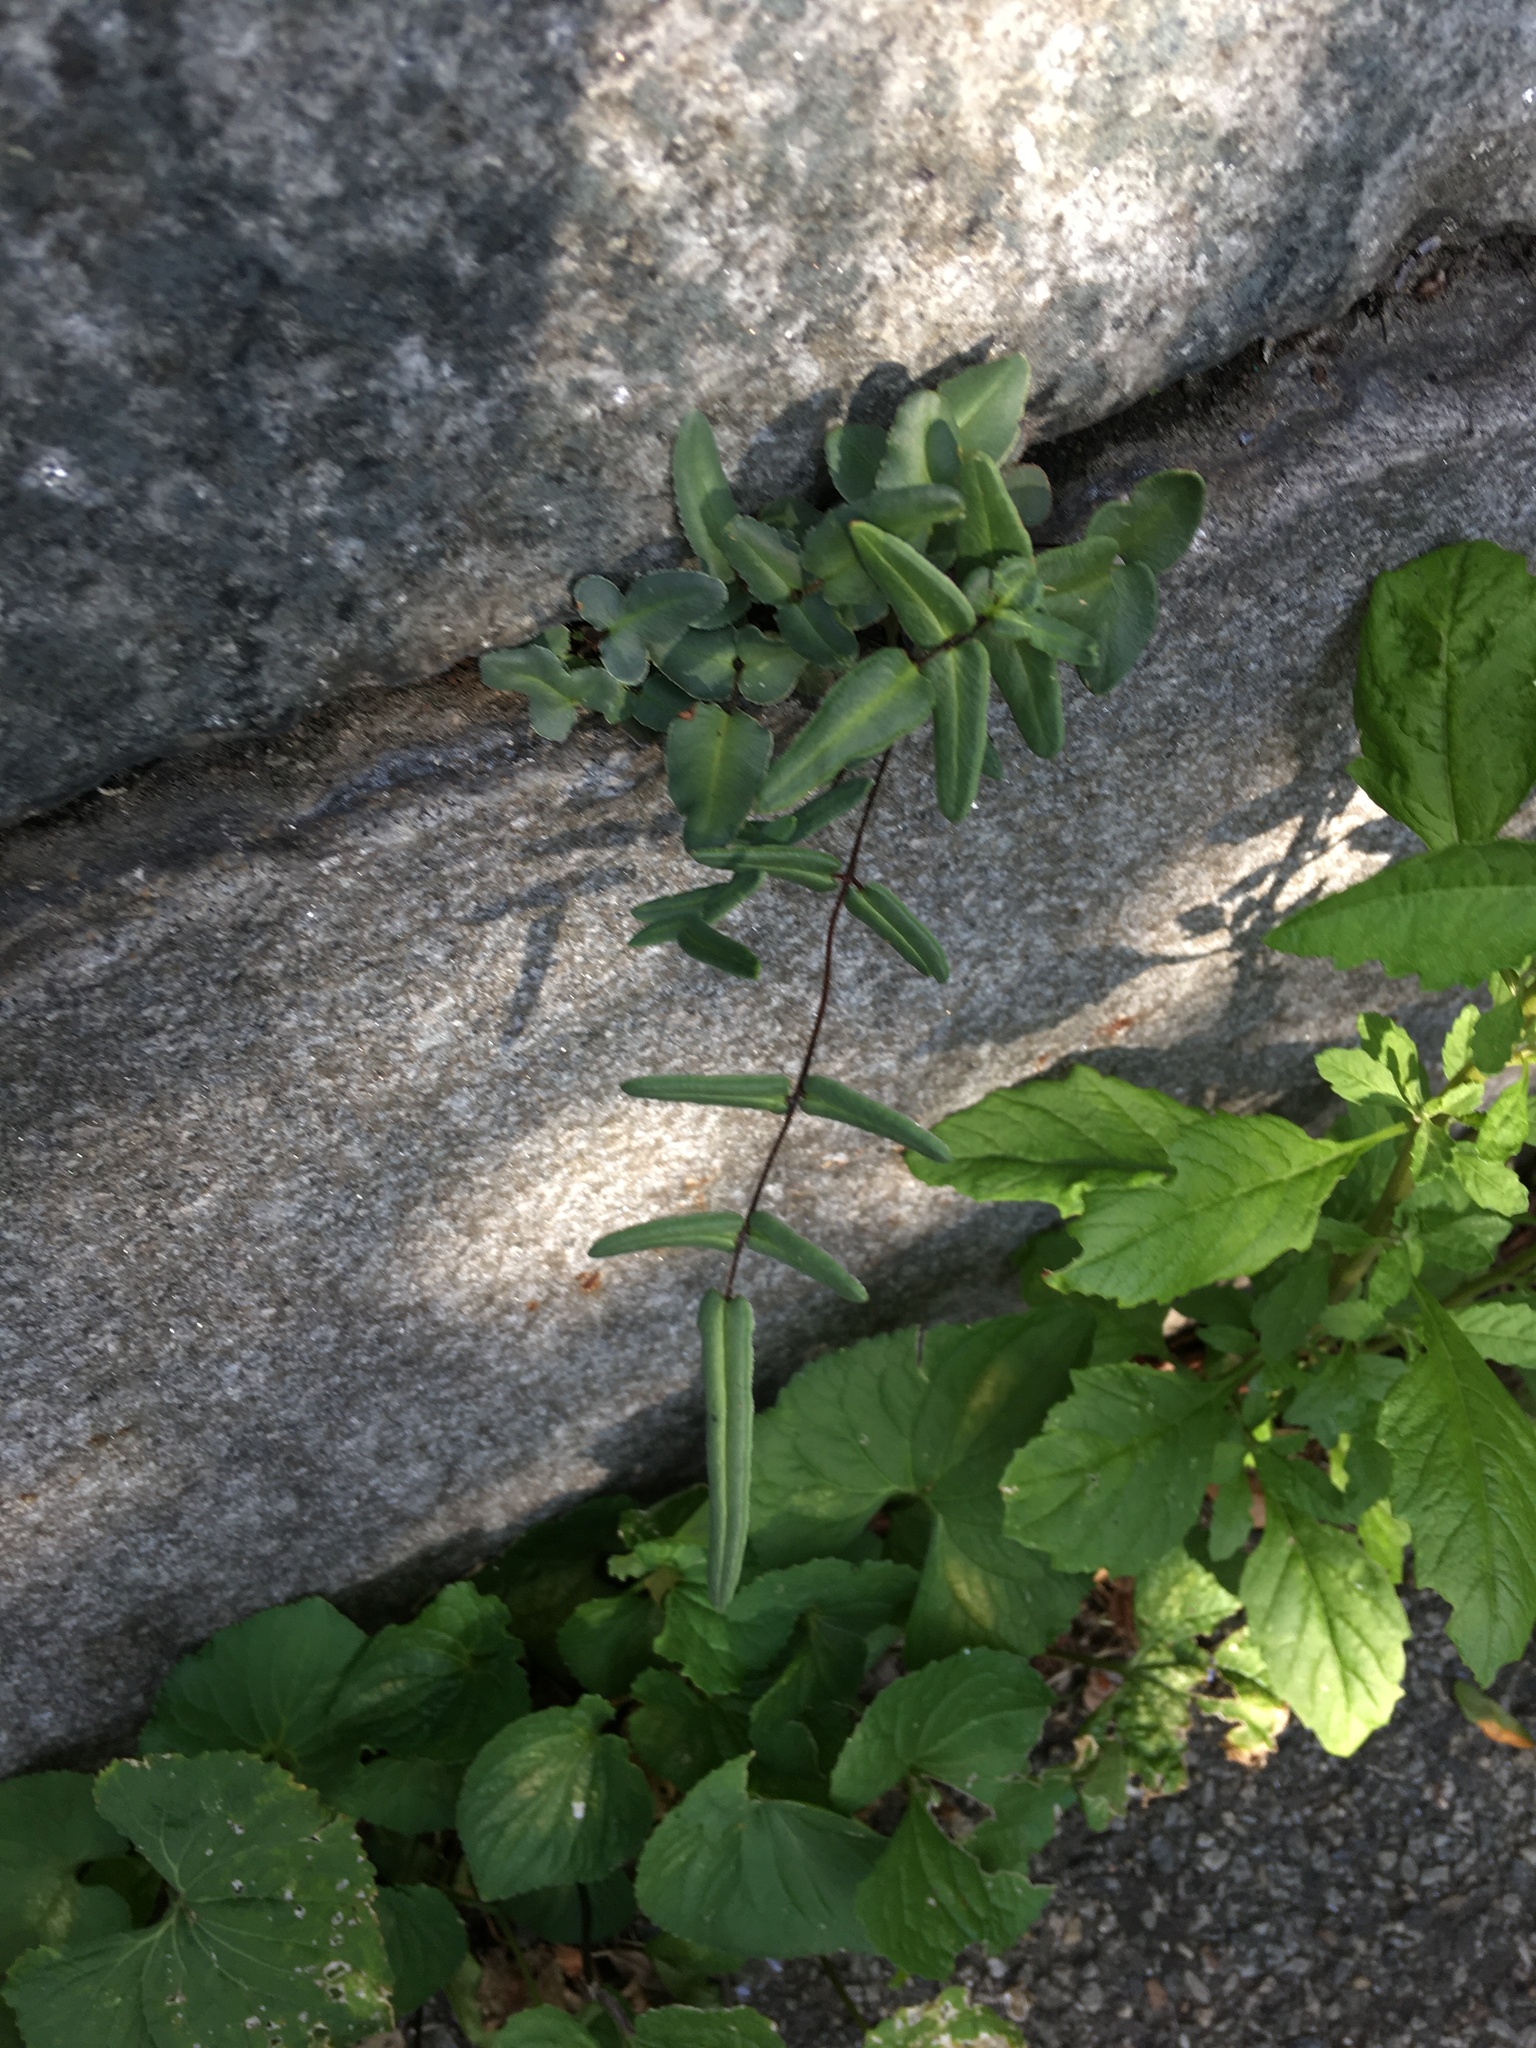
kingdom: Plantae
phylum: Tracheophyta
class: Polypodiopsida
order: Polypodiales
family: Pteridaceae
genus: Pellaea
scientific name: Pellaea atropurpurea
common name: Hairy cliffbrake
